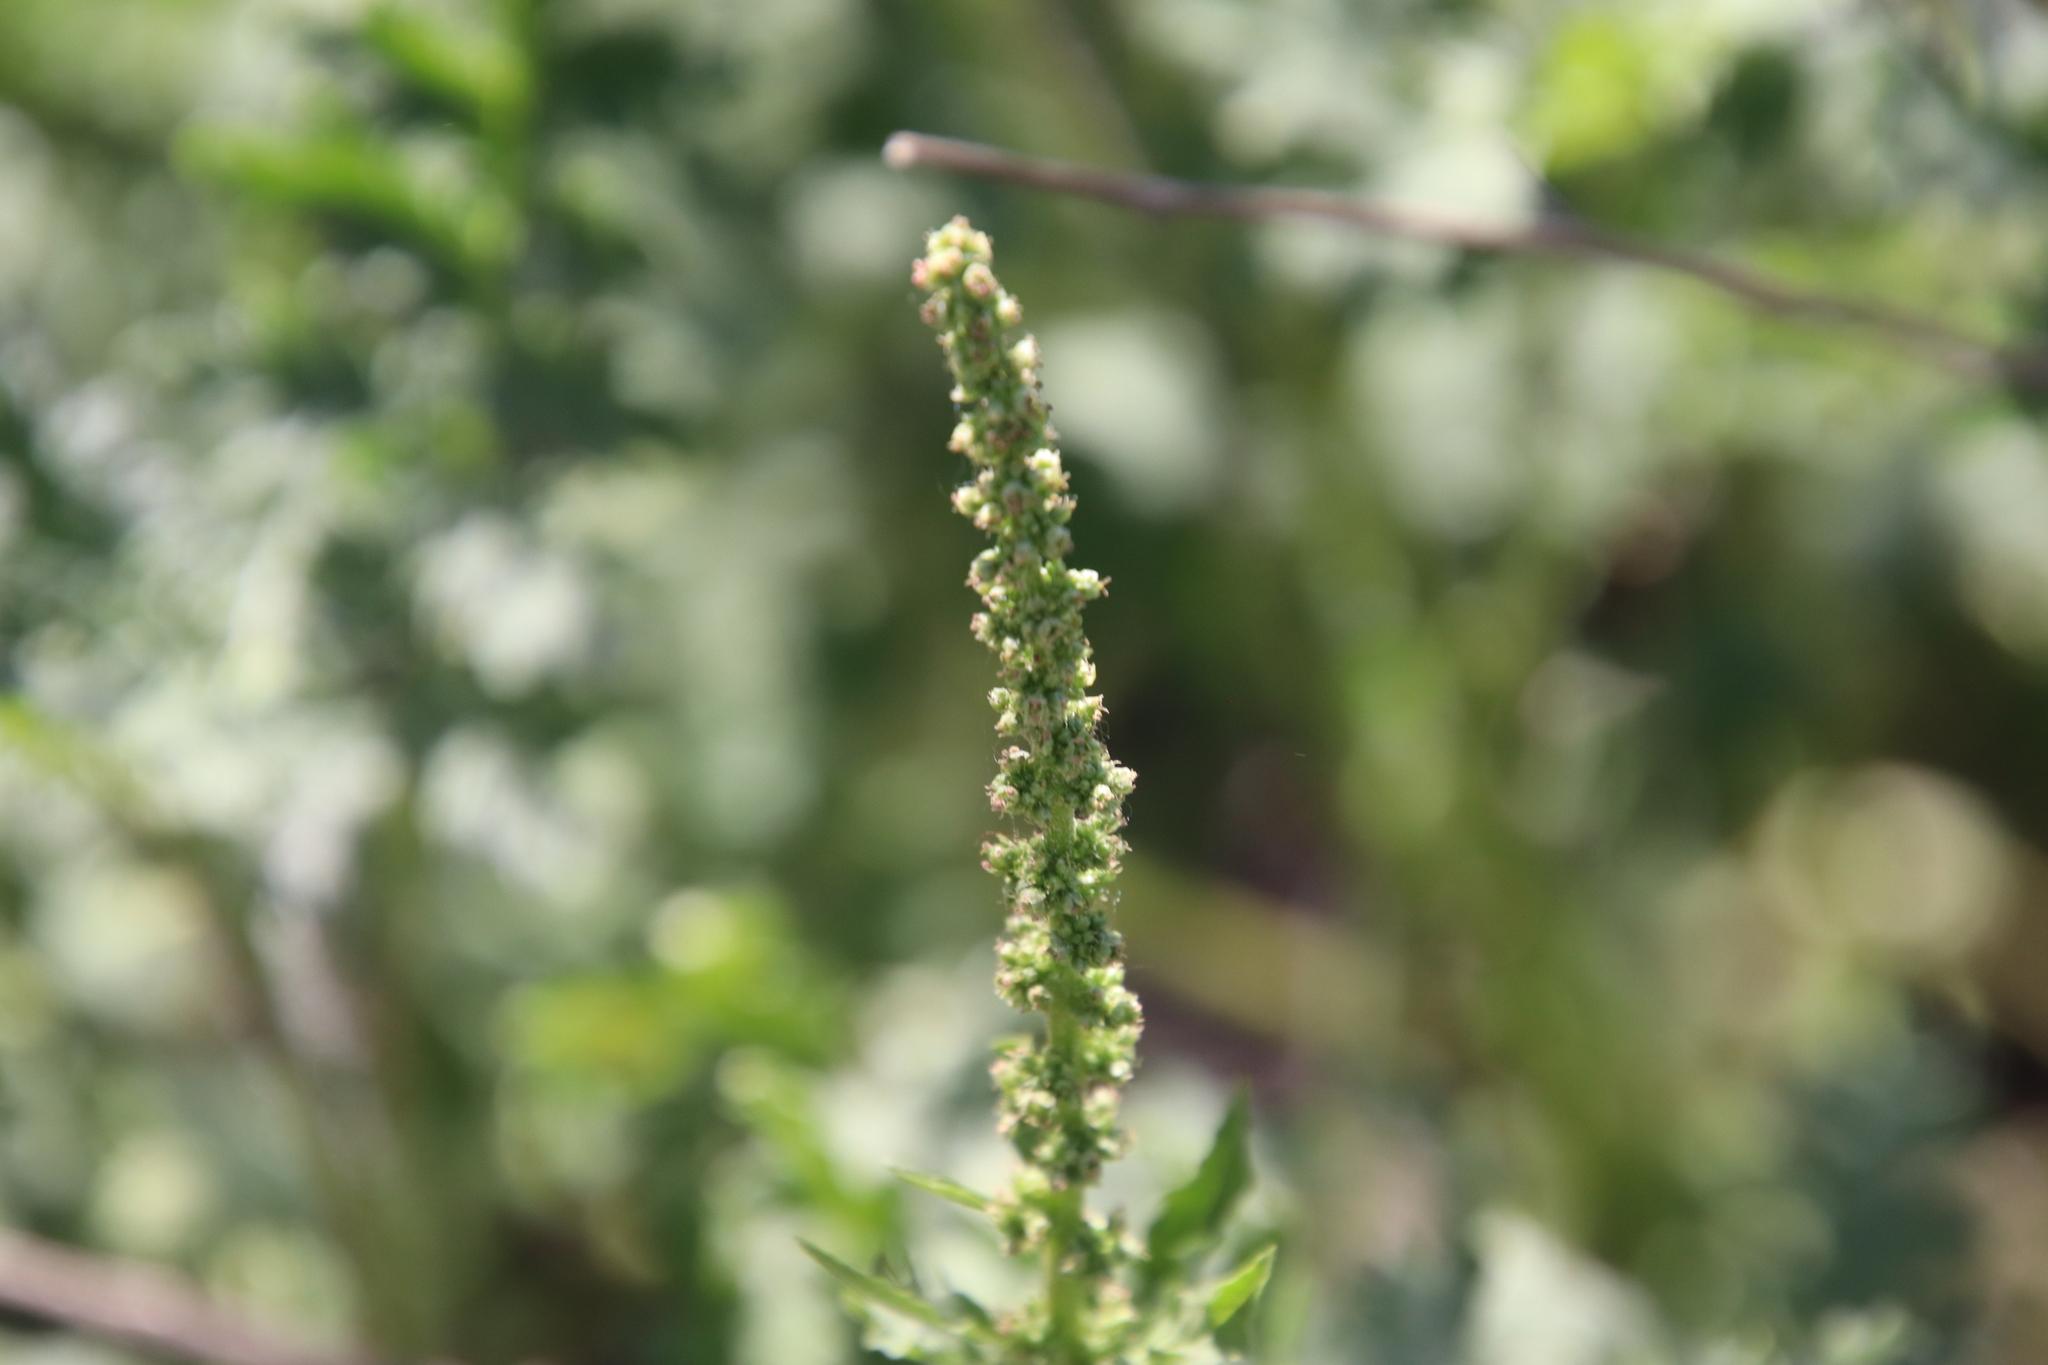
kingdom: Plantae
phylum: Tracheophyta
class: Magnoliopsida
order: Caryophyllales
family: Amaranthaceae
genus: Blitum
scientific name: Blitum californicum
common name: California goosefoot
